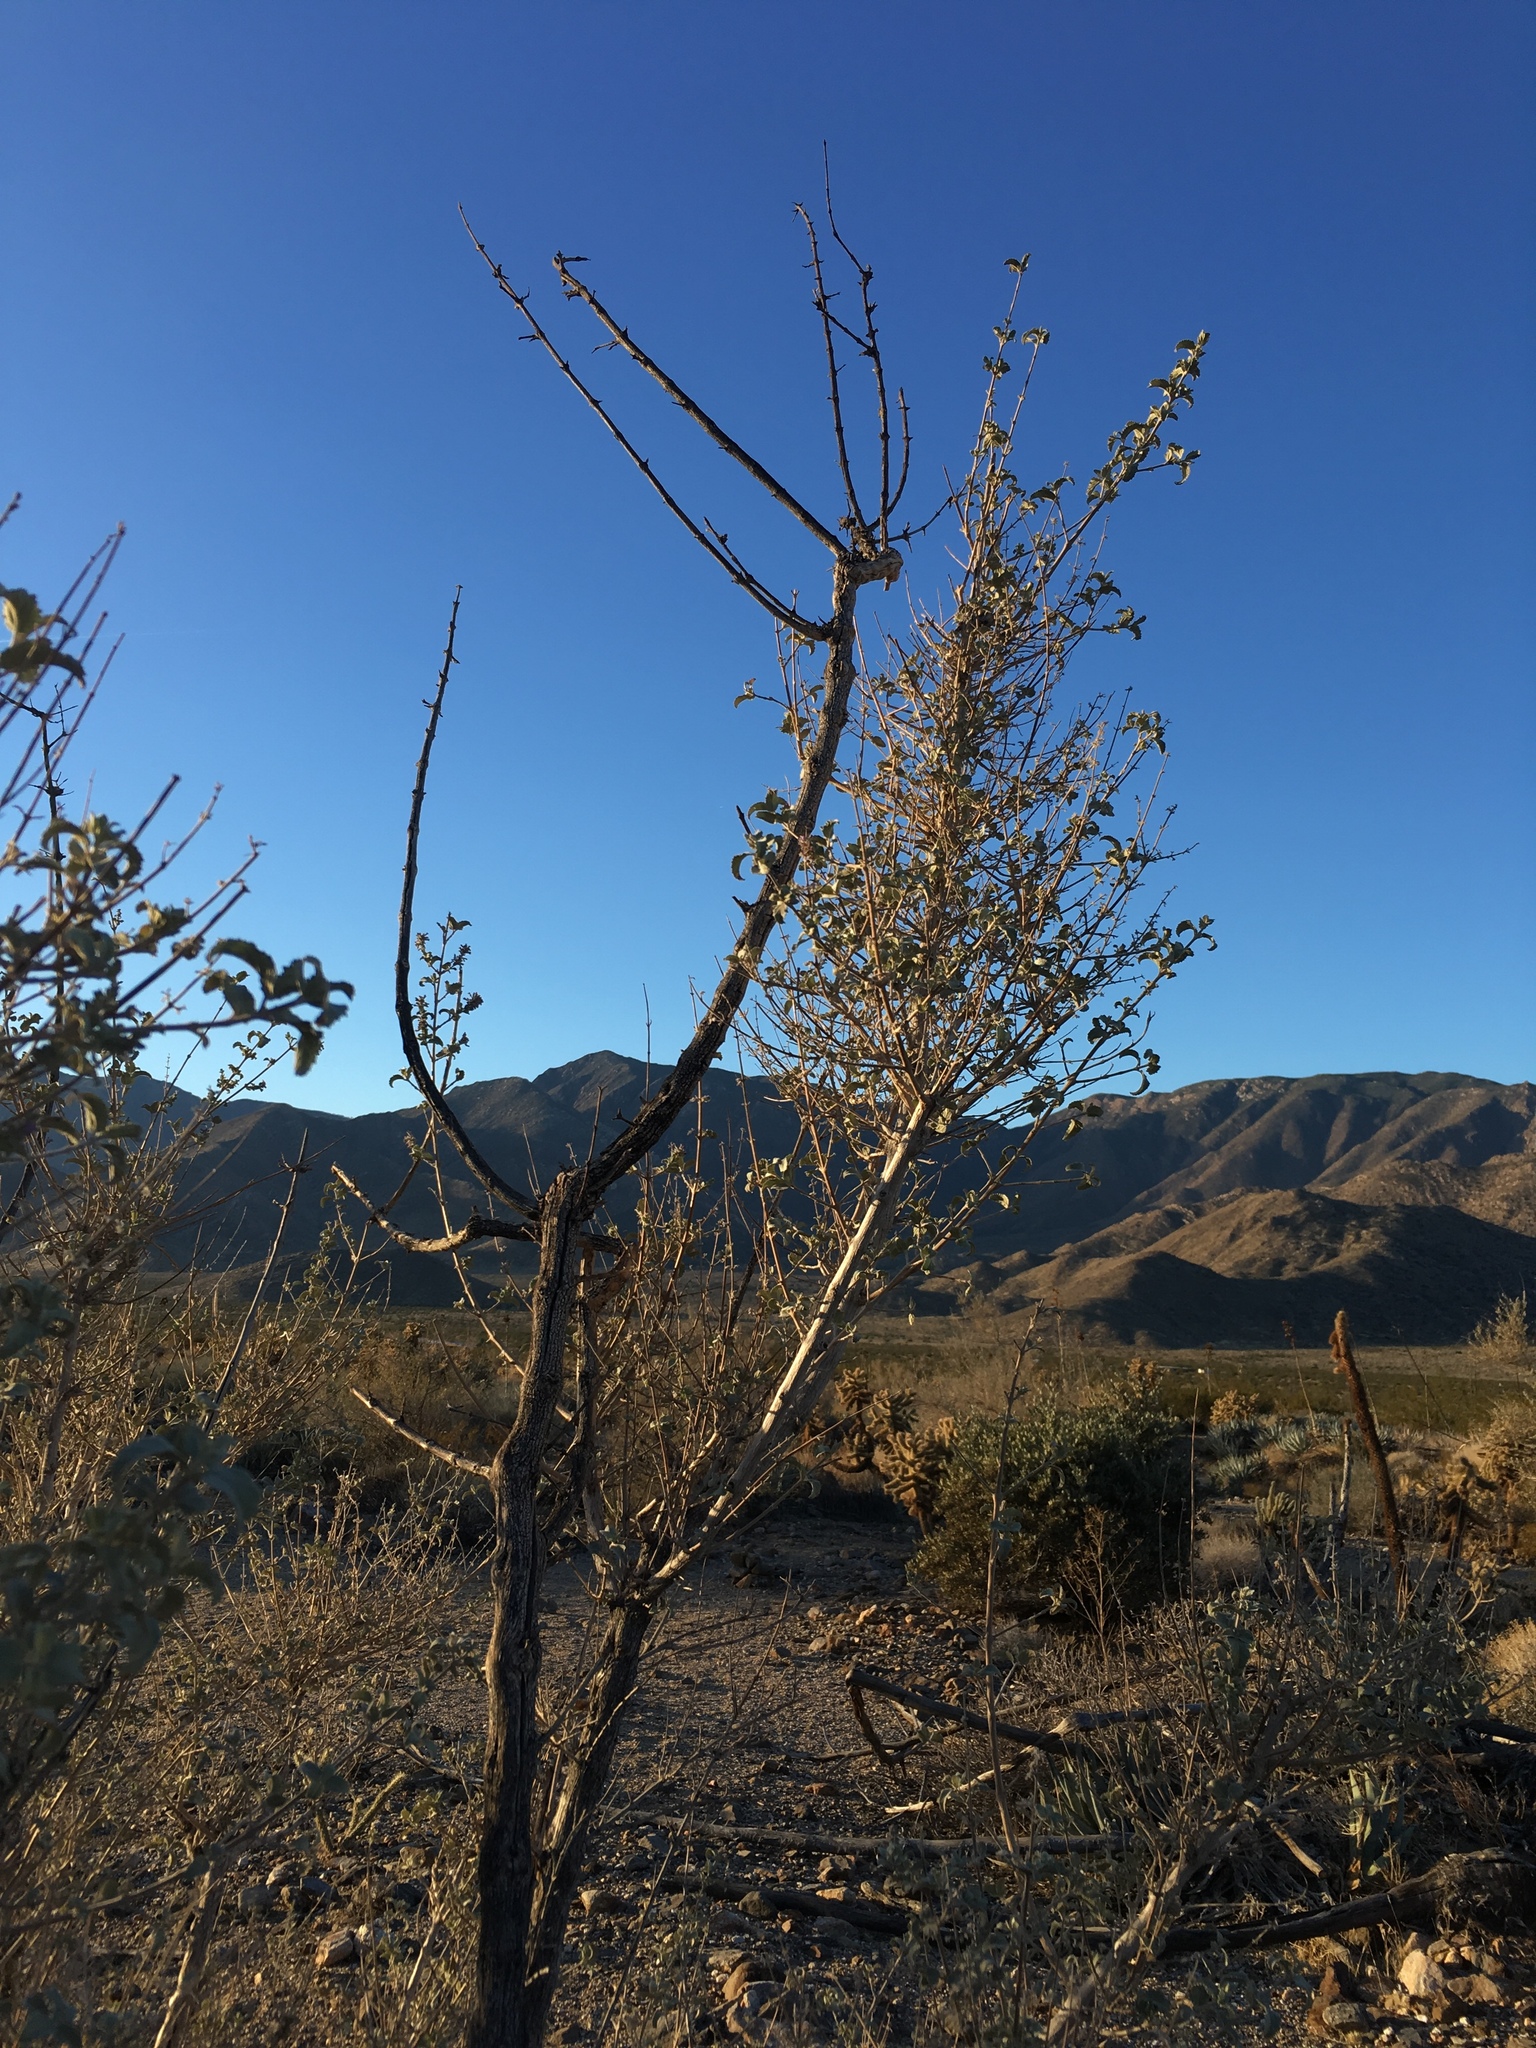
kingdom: Plantae
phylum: Tracheophyta
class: Magnoliopsida
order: Lamiales
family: Lamiaceae
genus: Condea
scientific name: Condea emoryi
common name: Chia
